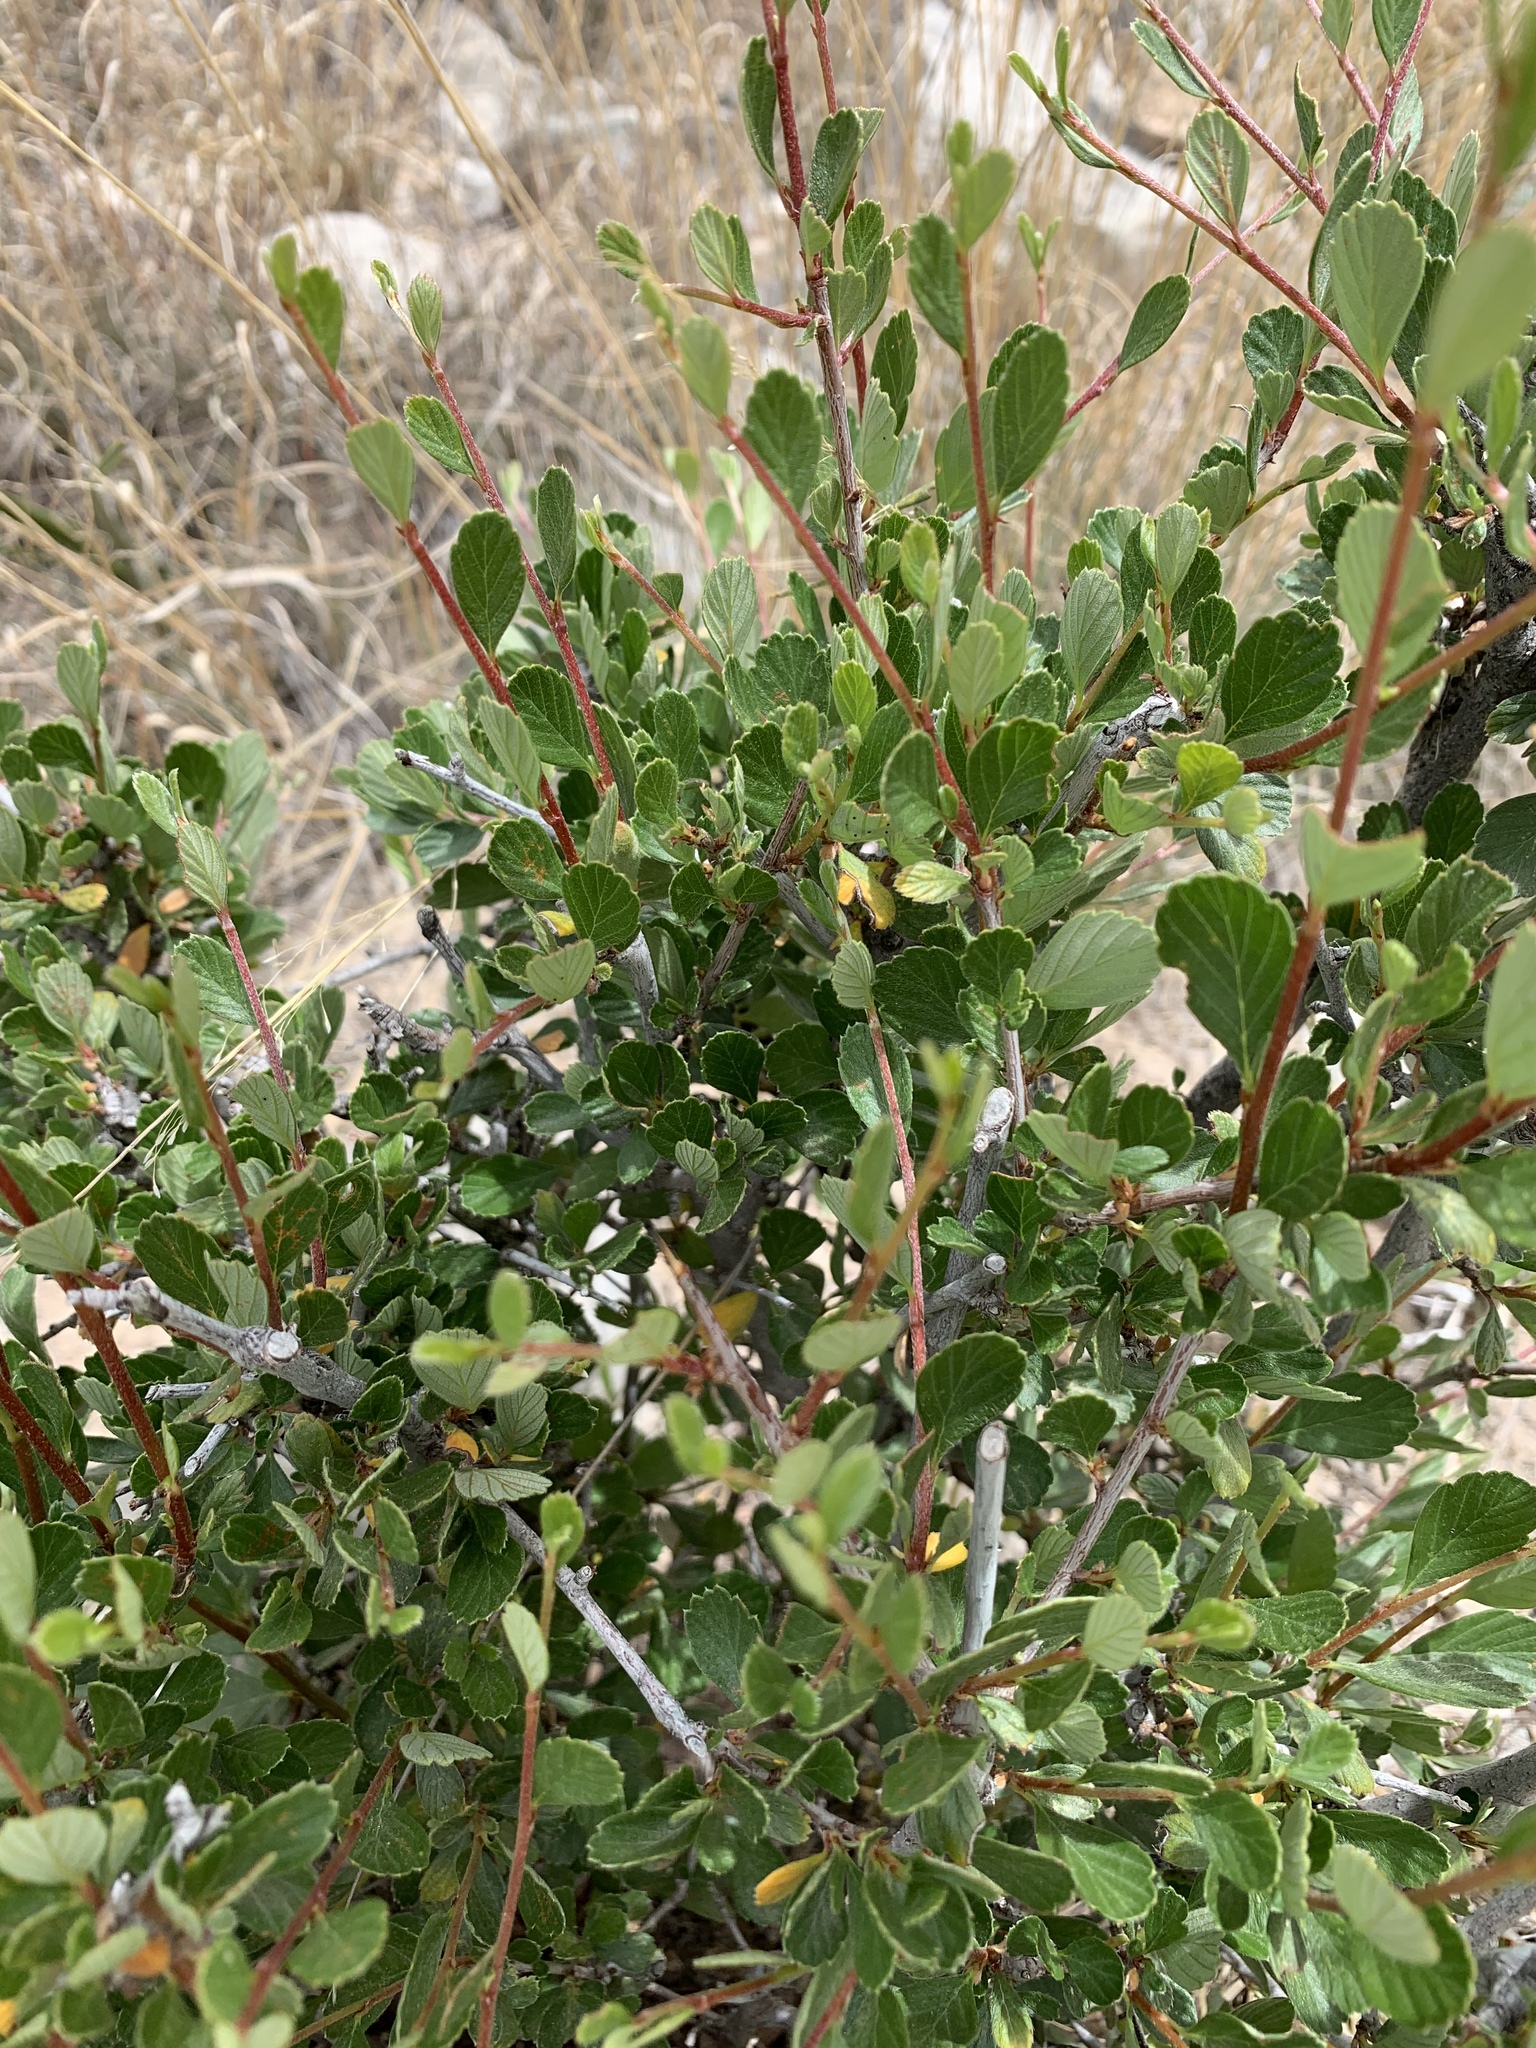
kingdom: Plantae
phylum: Tracheophyta
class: Magnoliopsida
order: Rosales
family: Rosaceae
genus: Cercocarpus
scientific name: Cercocarpus breviflorus
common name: Wright's mountain-mahogany
